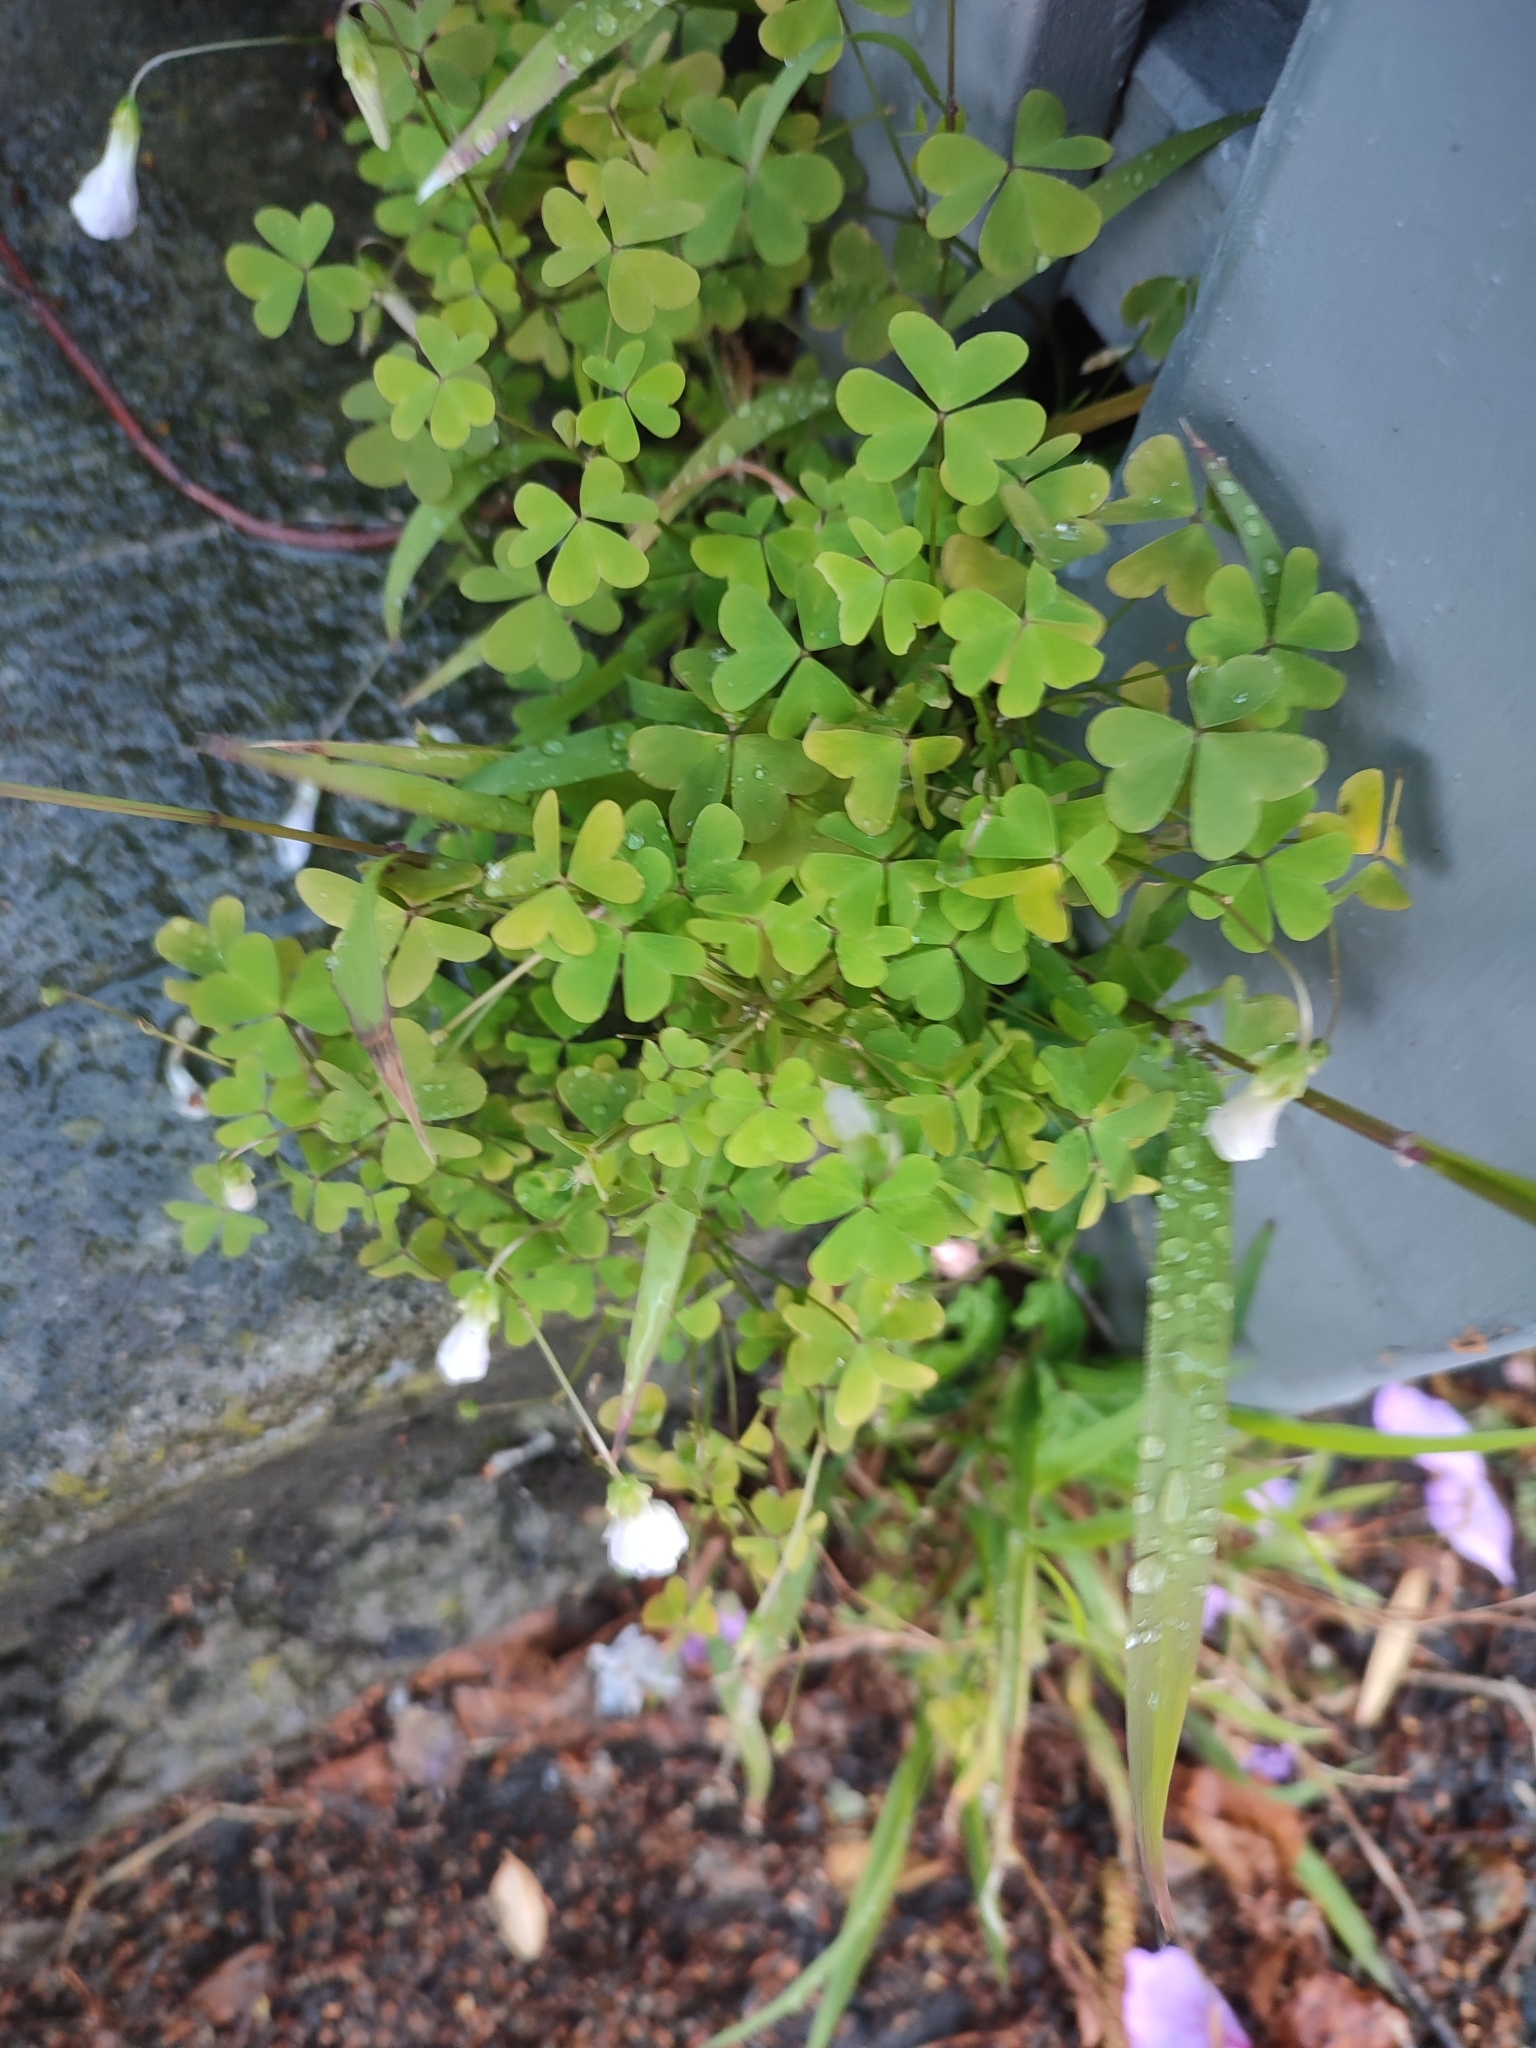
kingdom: Plantae
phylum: Tracheophyta
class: Magnoliopsida
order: Oxalidales
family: Oxalidaceae
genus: Oxalis
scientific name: Oxalis incarnata
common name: Pale pink-sorrel
